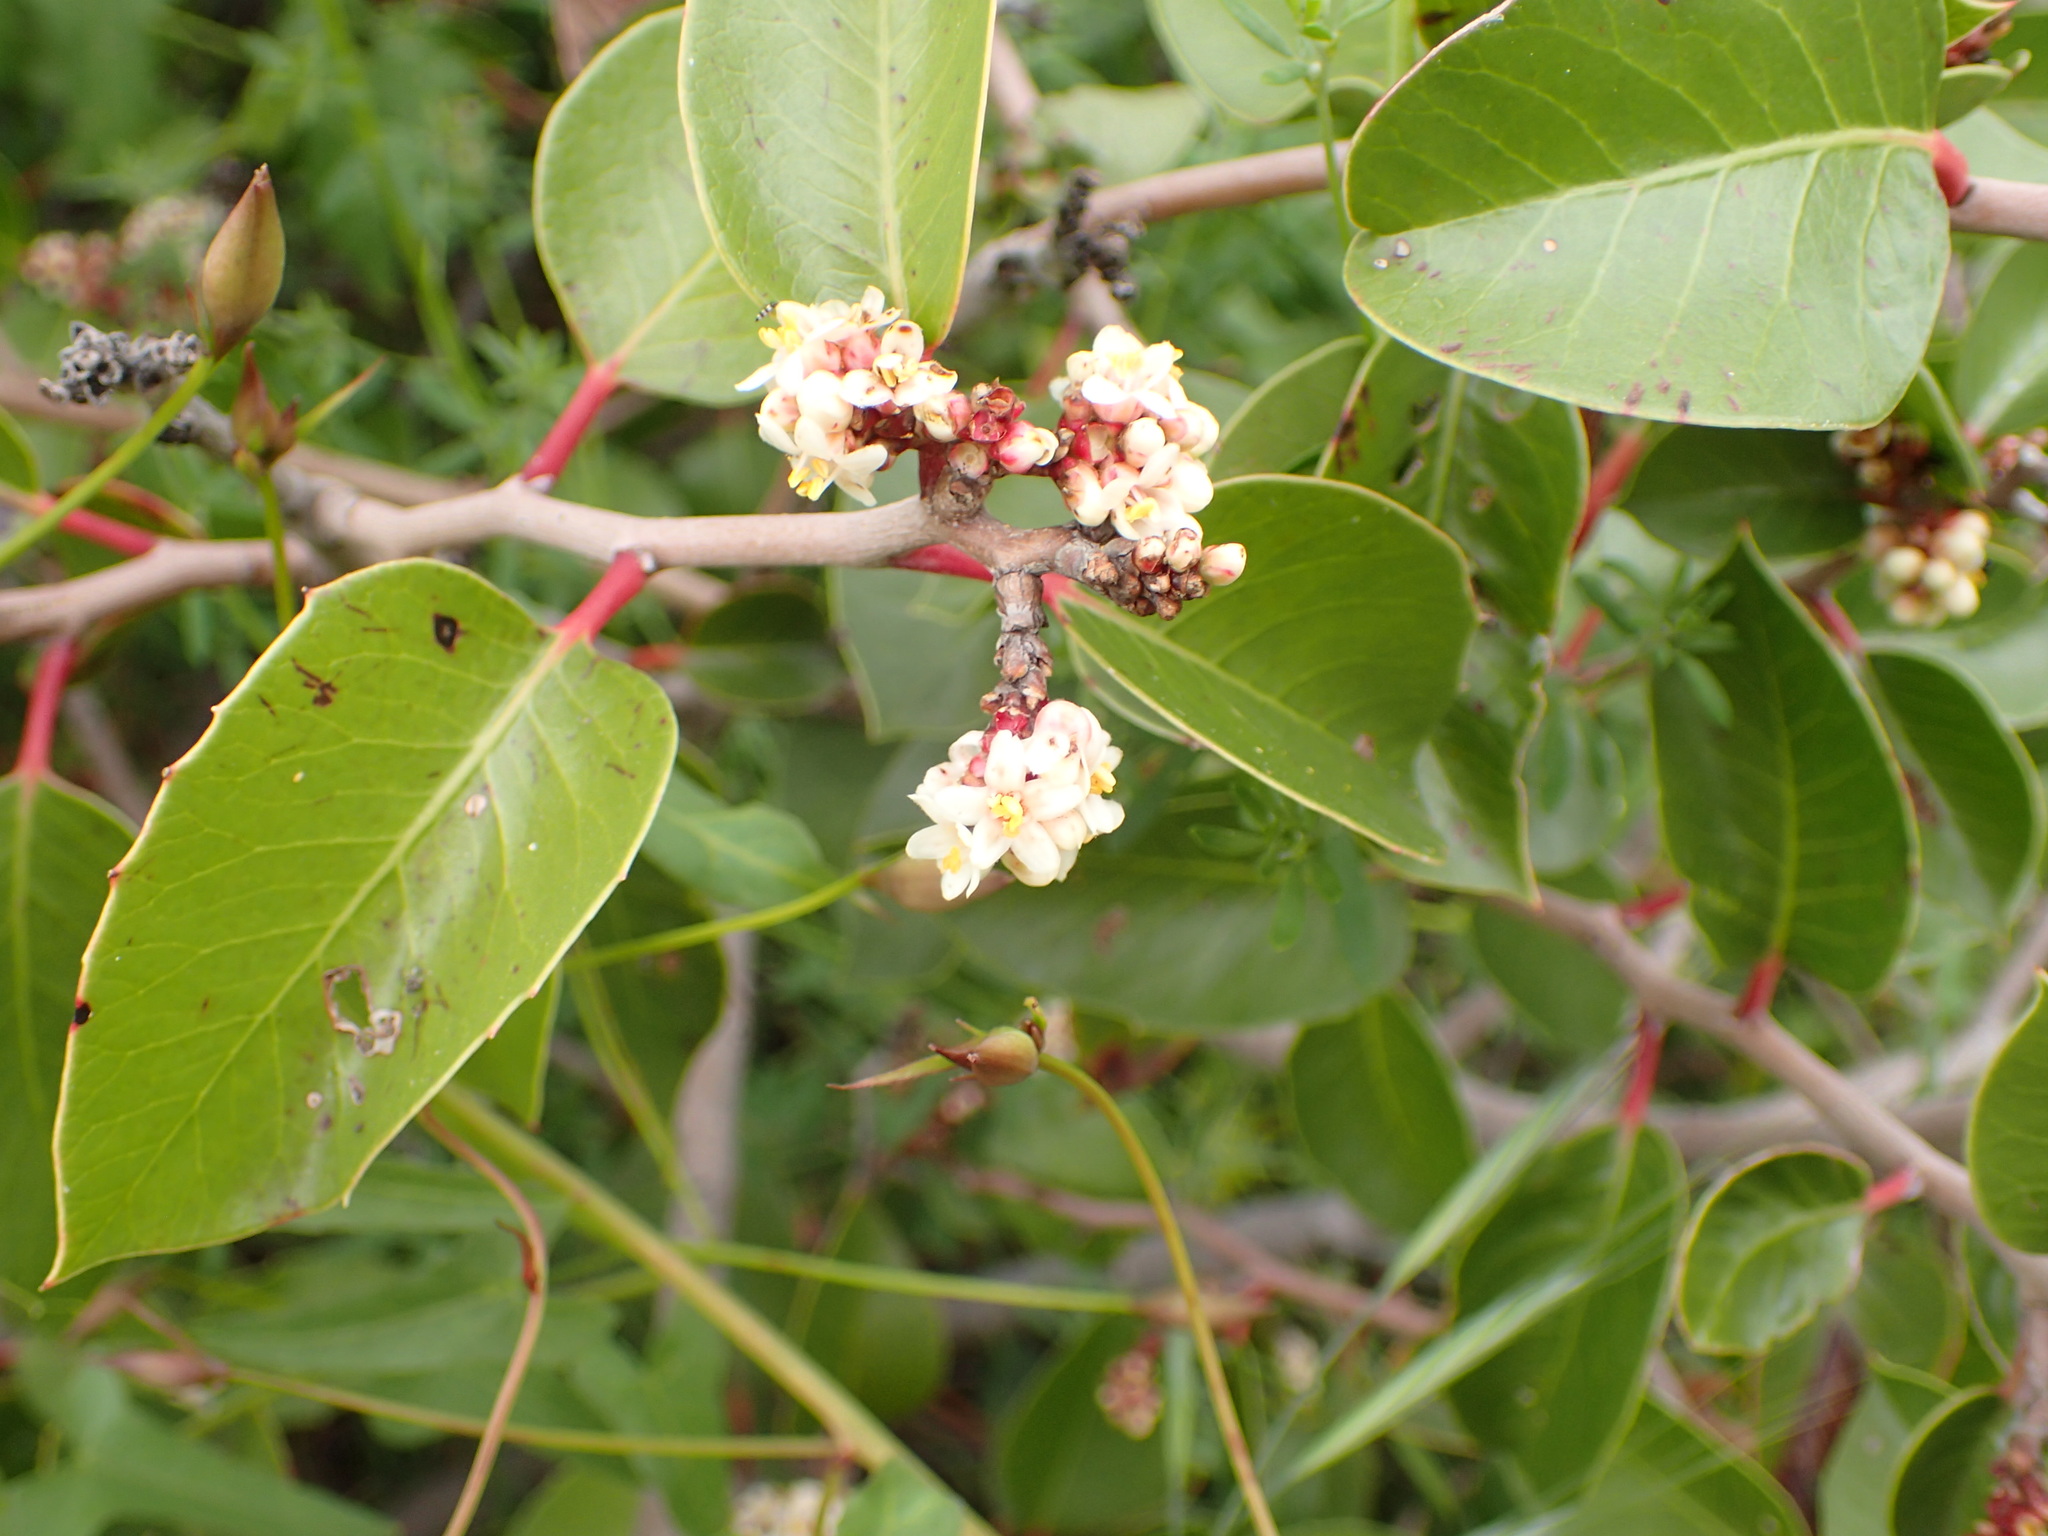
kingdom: Plantae
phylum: Tracheophyta
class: Magnoliopsida
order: Sapindales
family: Anacardiaceae
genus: Rhus
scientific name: Rhus ovata
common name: Sugar sumac
